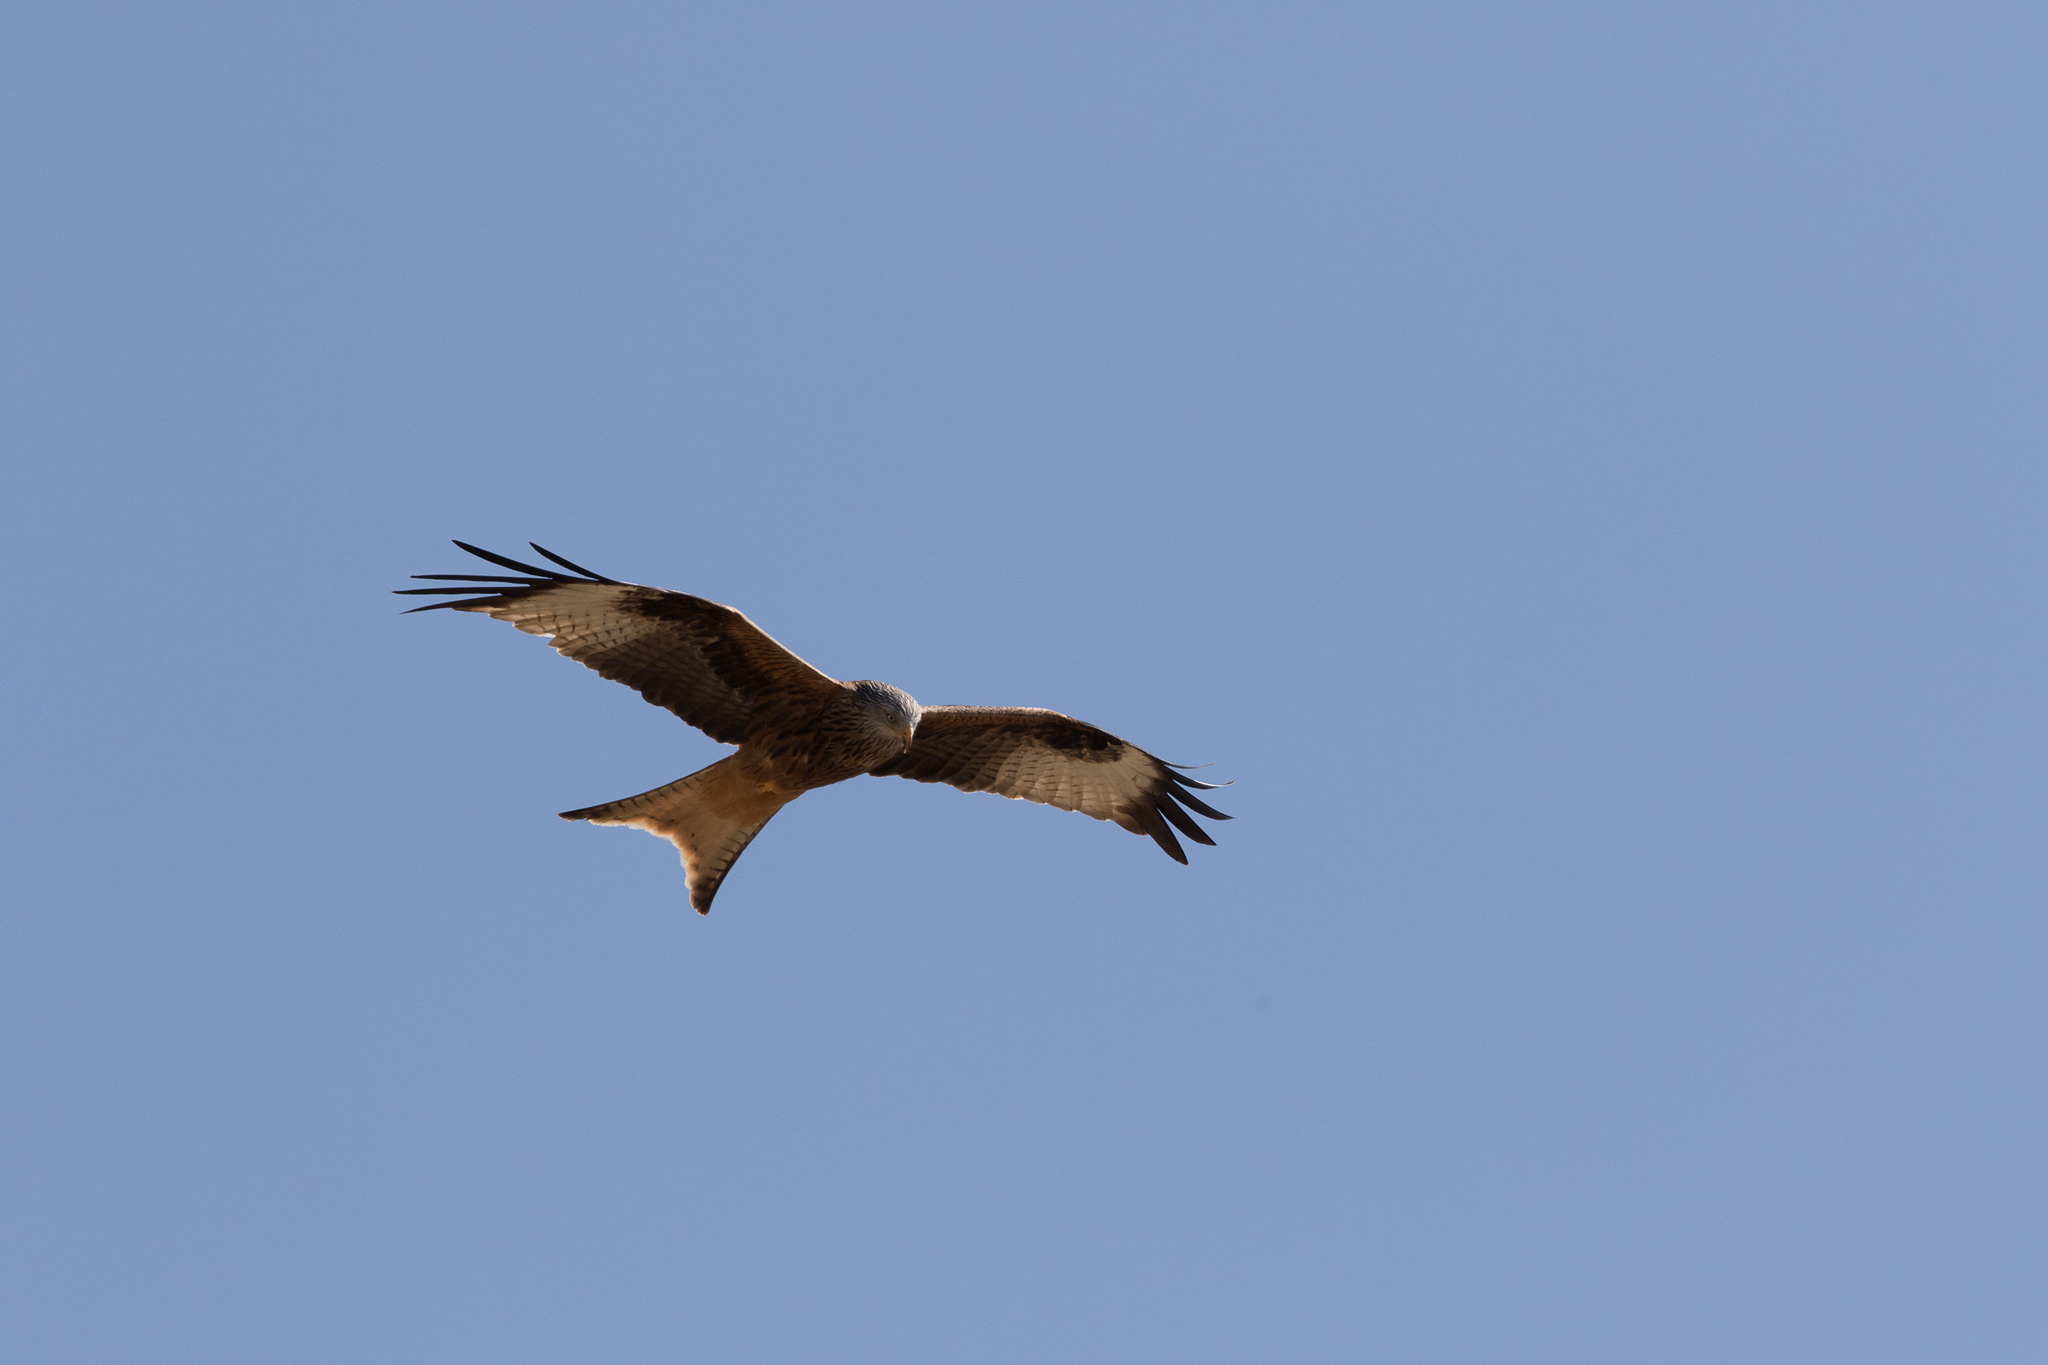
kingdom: Animalia
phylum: Chordata
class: Aves
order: Accipitriformes
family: Accipitridae
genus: Milvus
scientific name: Milvus milvus
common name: Red kite
